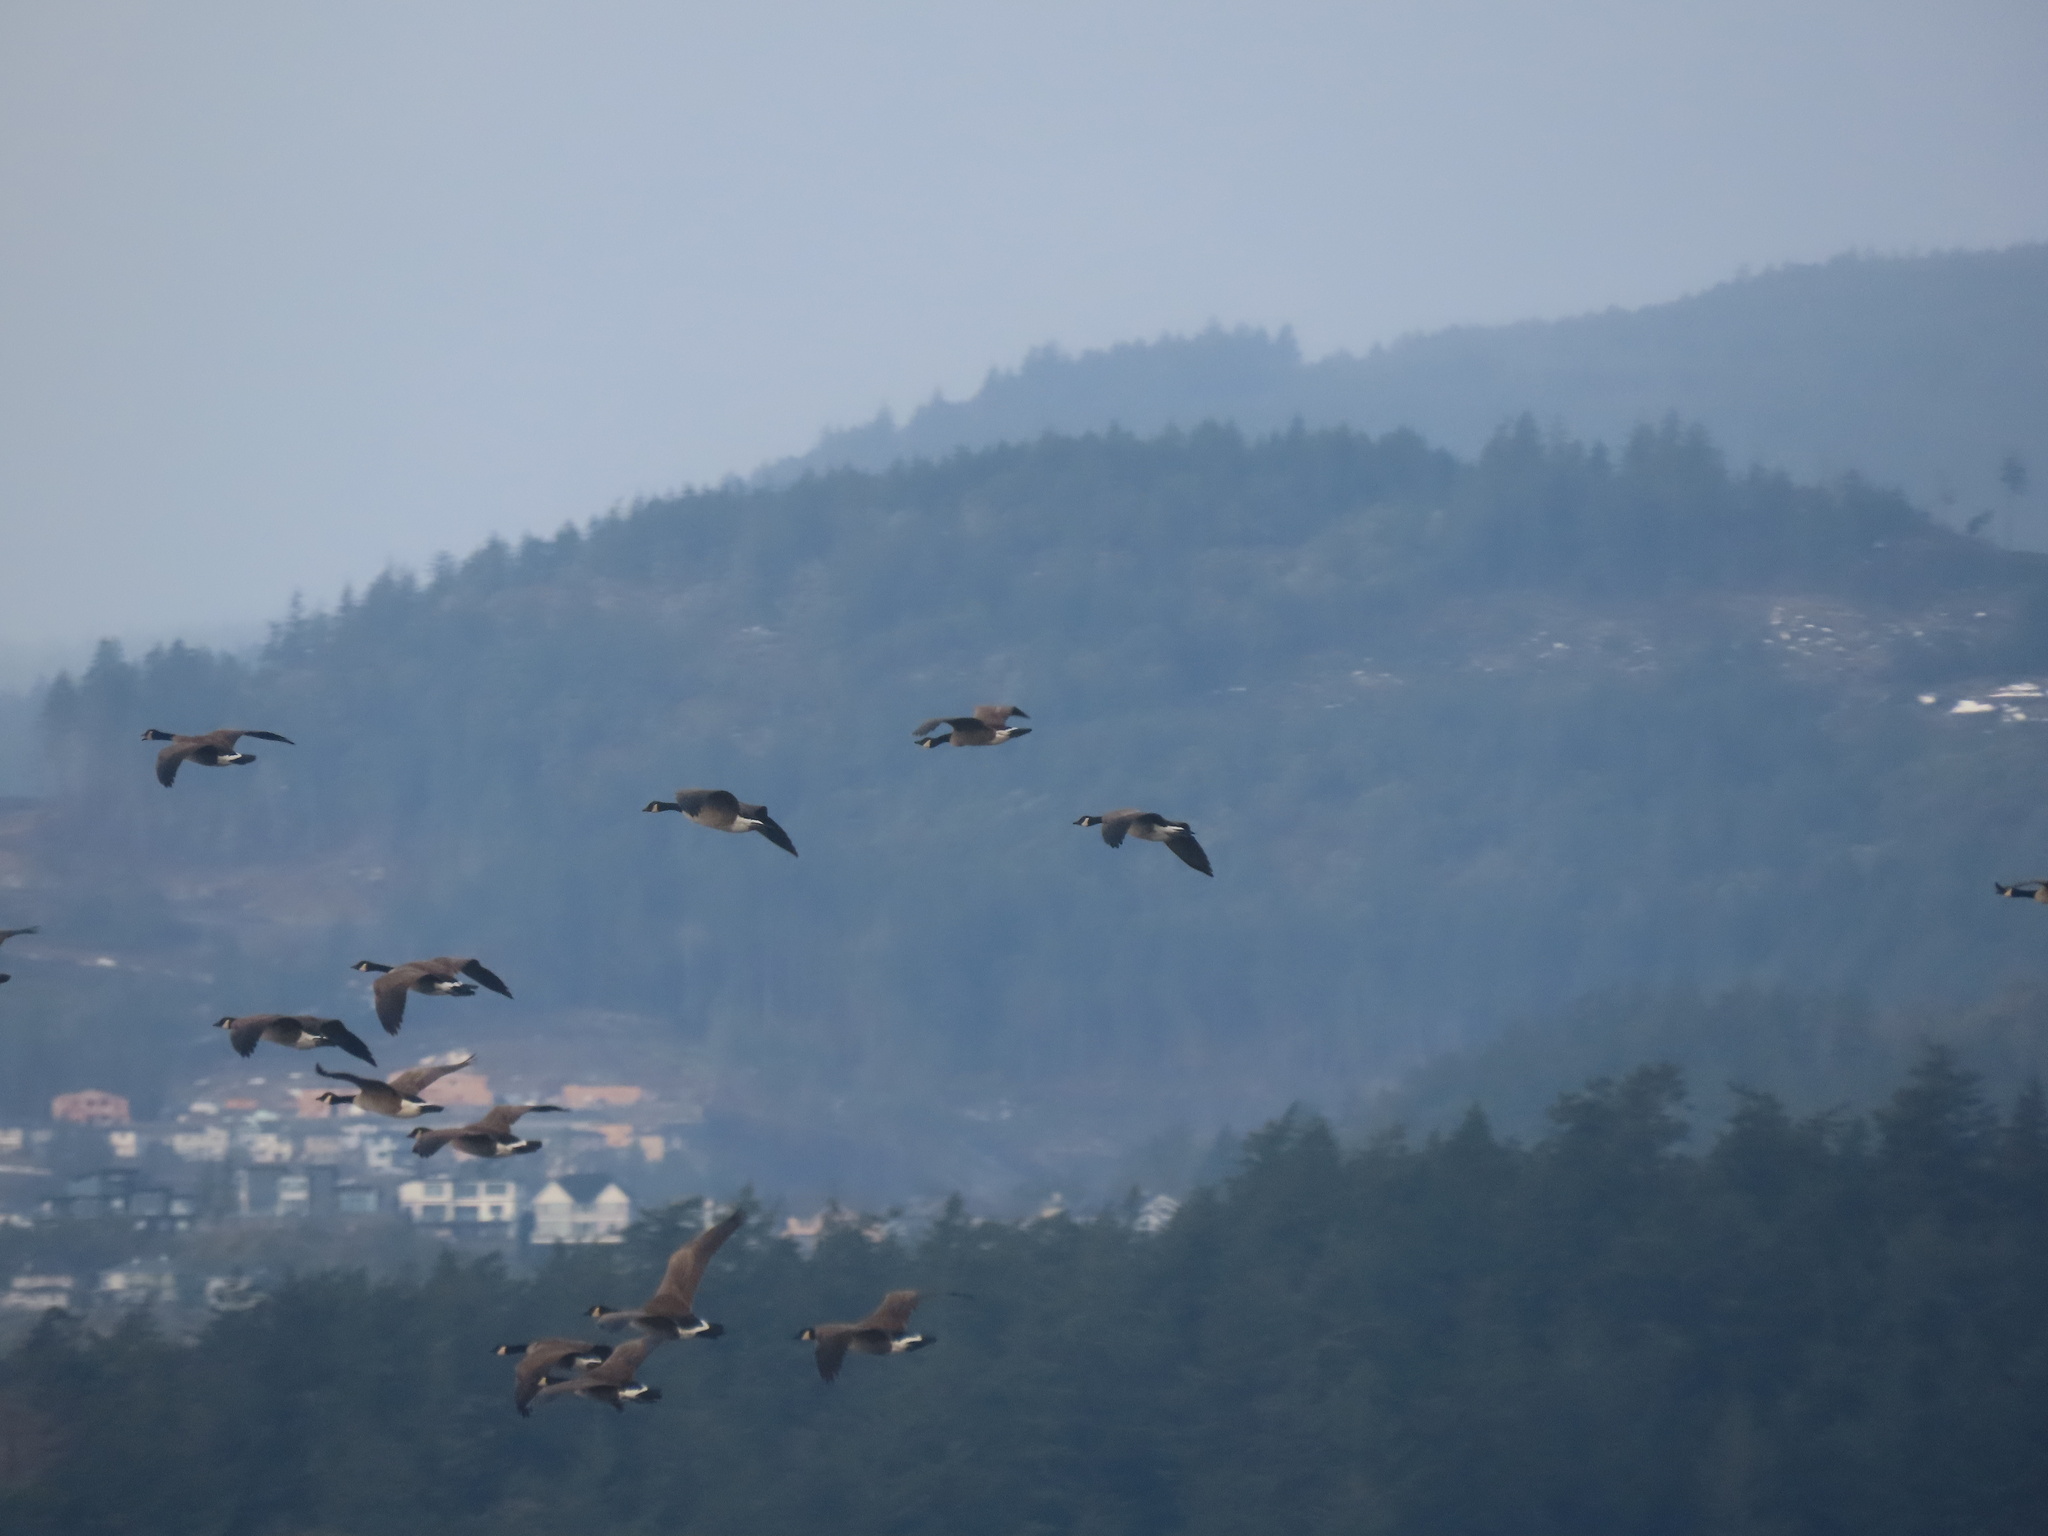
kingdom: Animalia
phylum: Chordata
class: Aves
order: Anseriformes
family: Anatidae
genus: Branta
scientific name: Branta canadensis
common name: Canada goose
